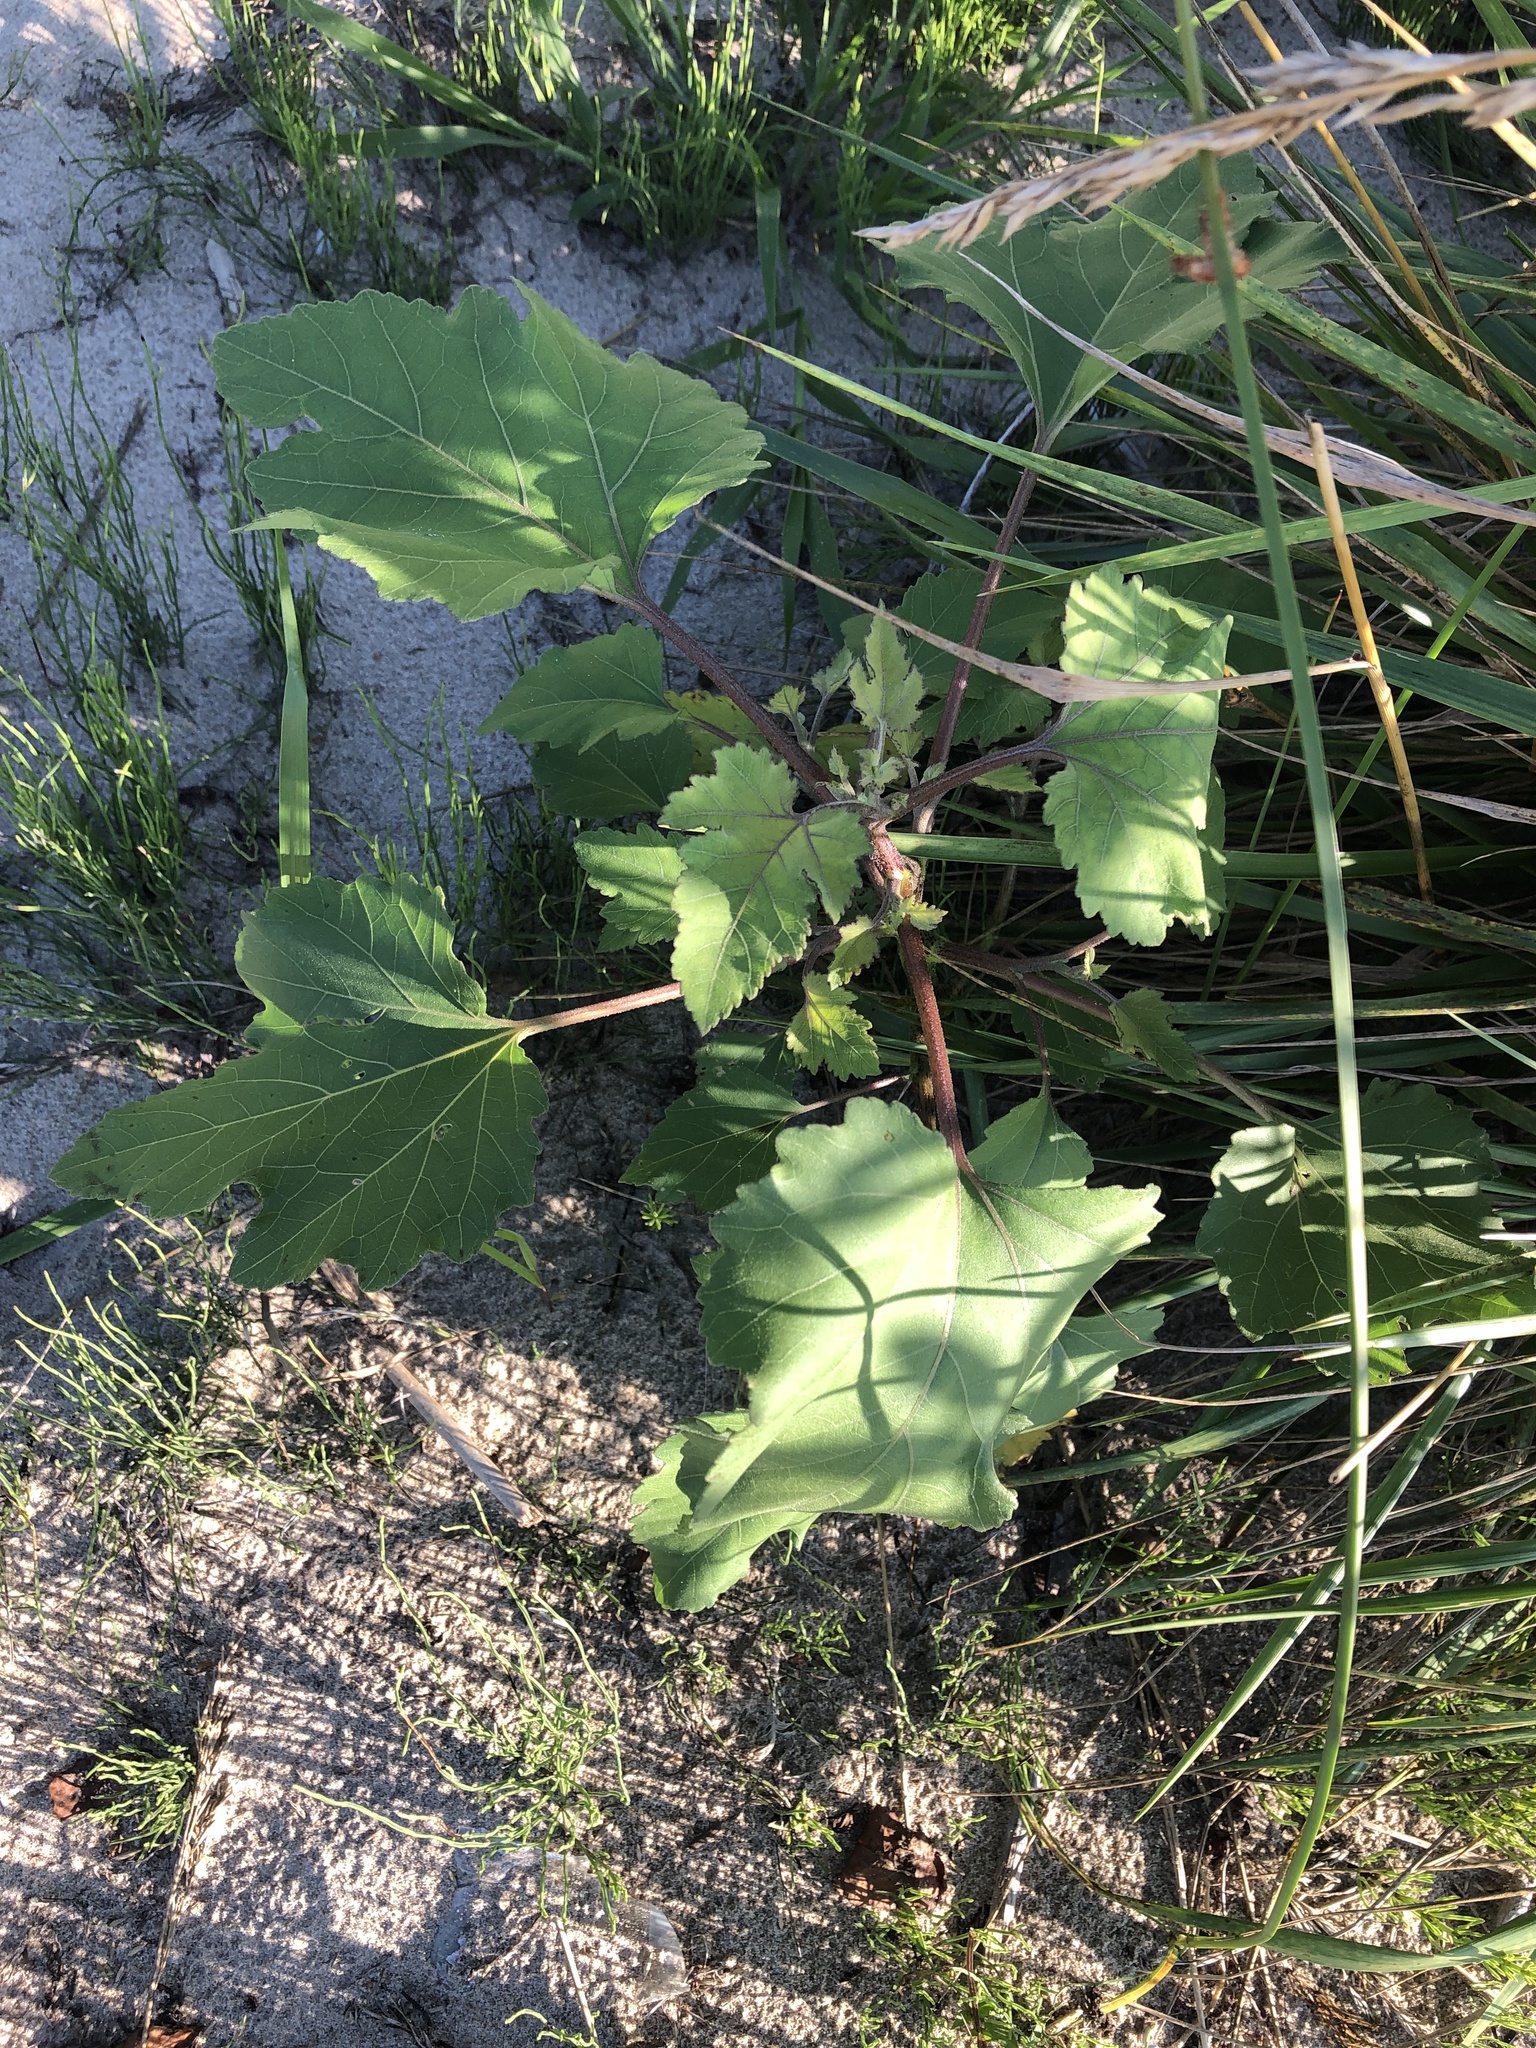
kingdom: Plantae
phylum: Tracheophyta
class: Magnoliopsida
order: Asterales
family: Asteraceae
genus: Xanthium
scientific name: Xanthium strumarium
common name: Rough cocklebur
